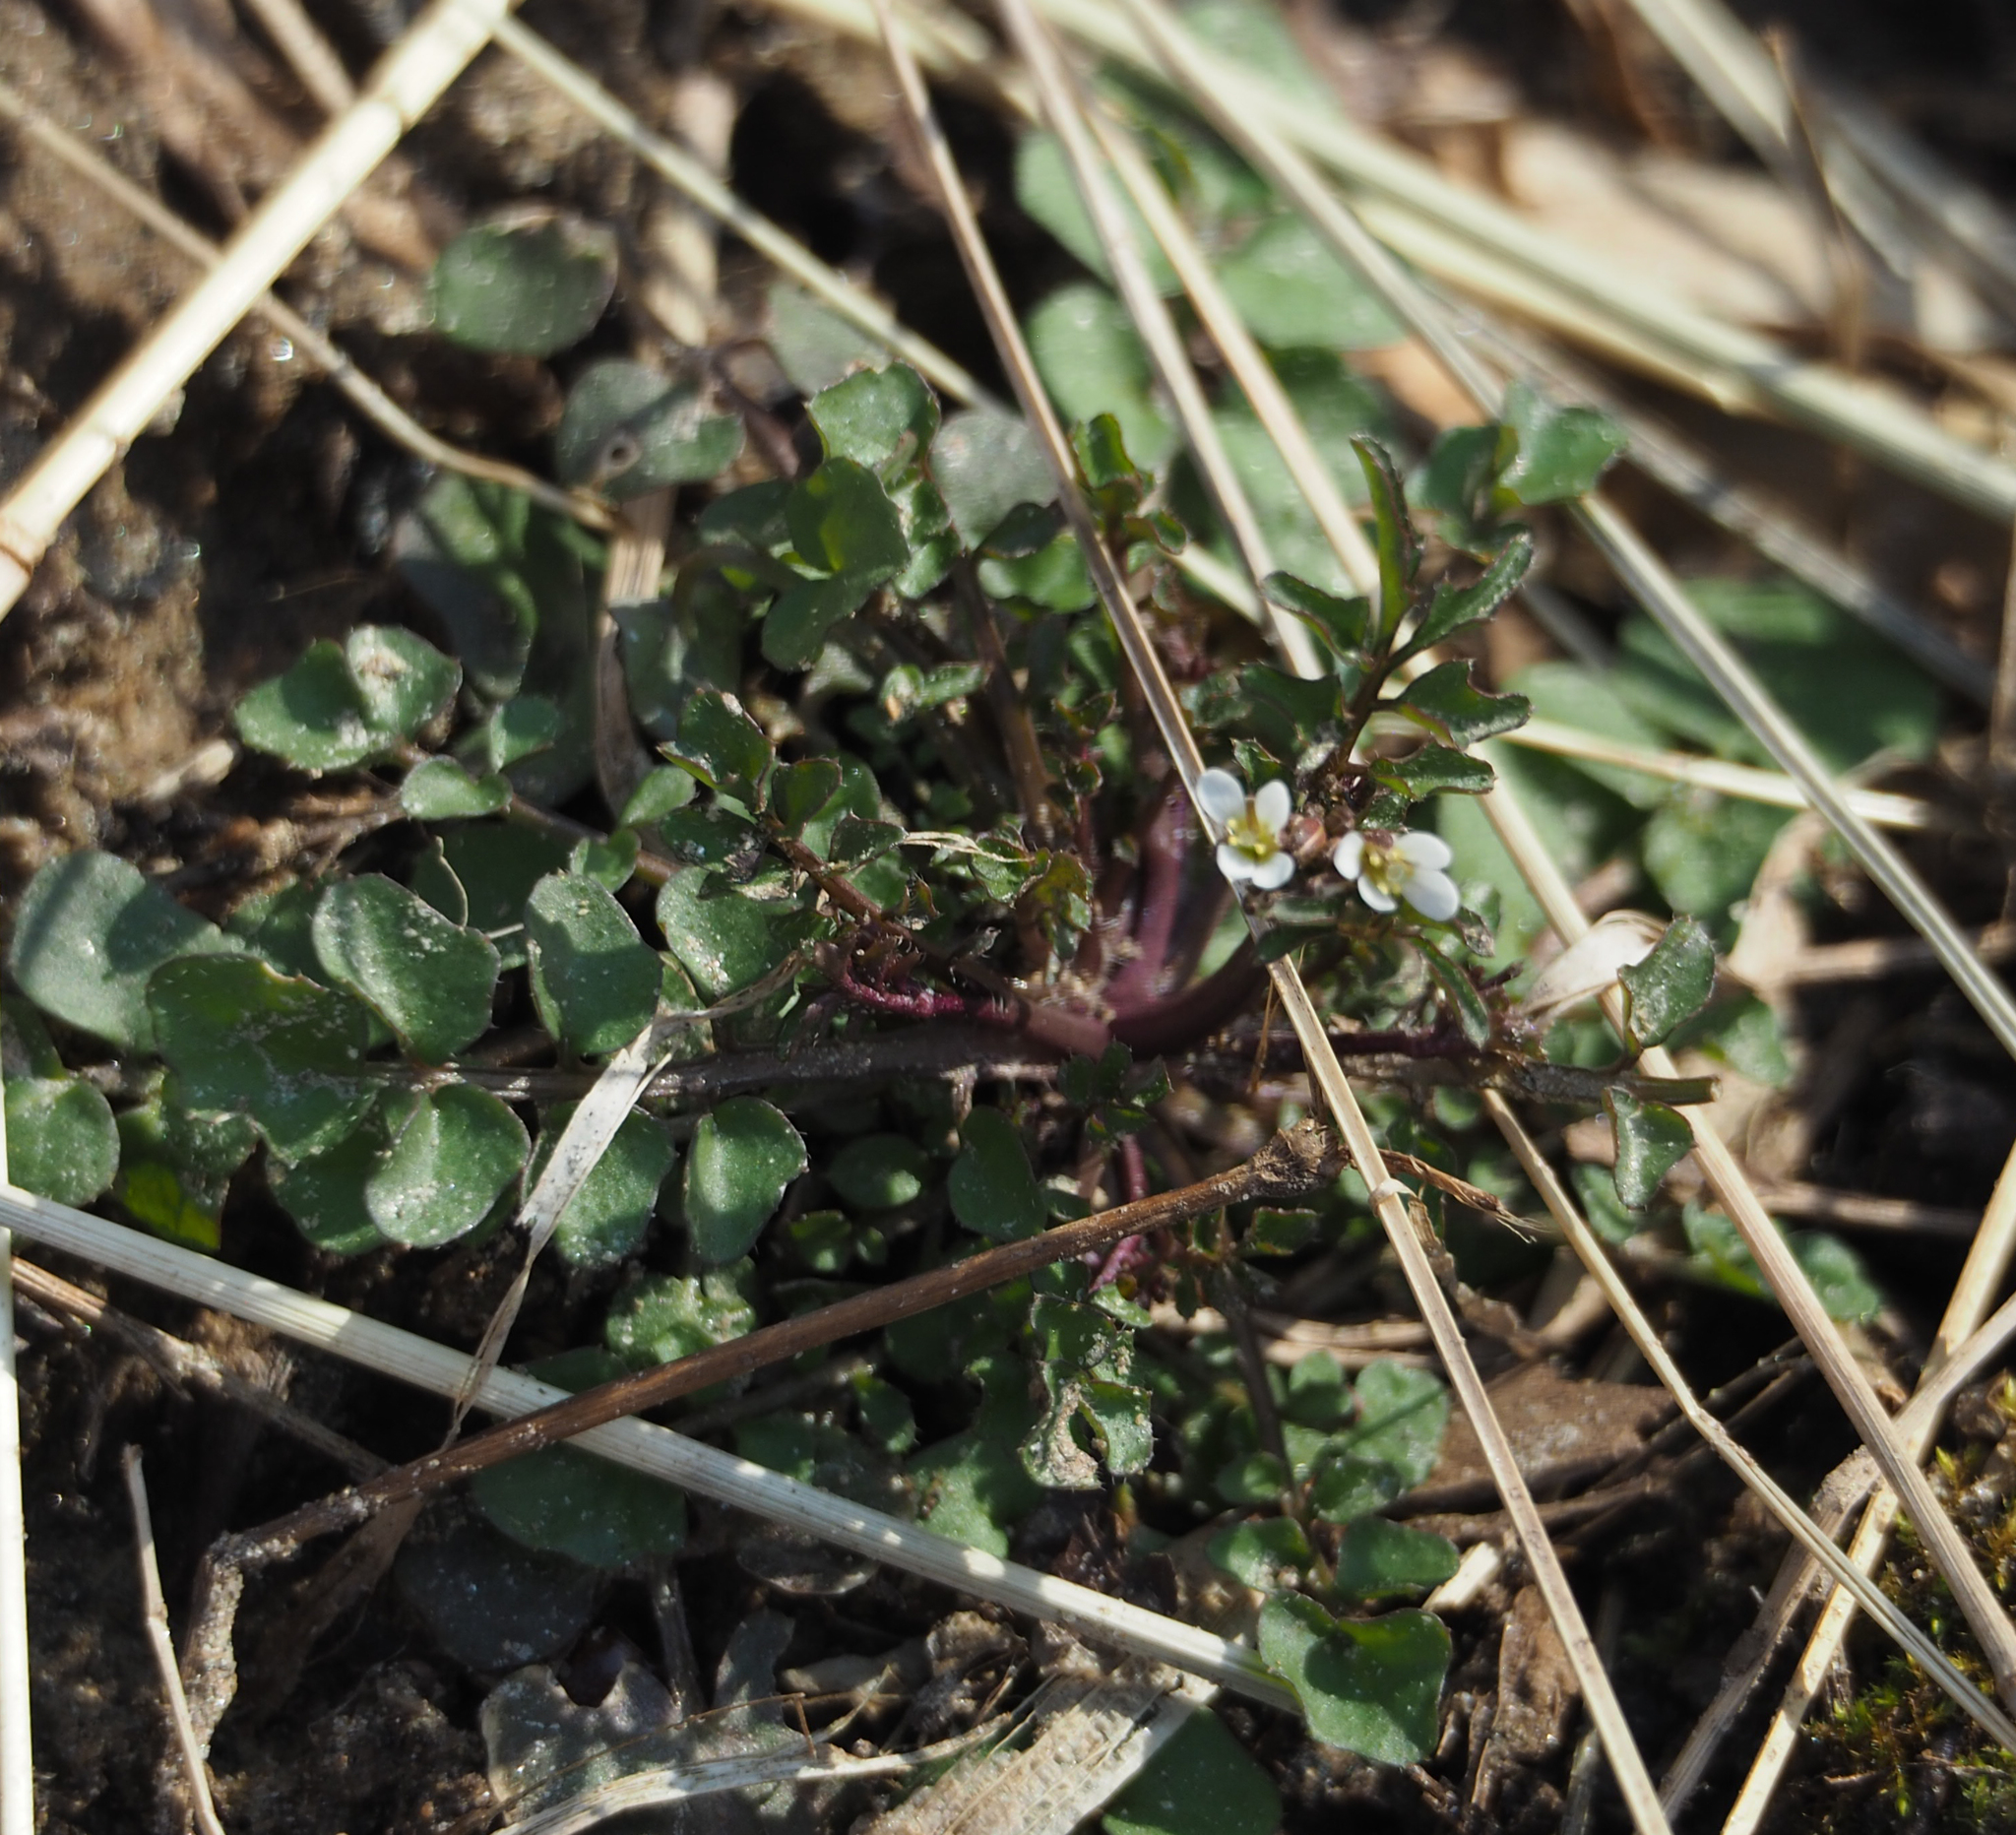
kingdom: Plantae
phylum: Tracheophyta
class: Magnoliopsida
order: Brassicales
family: Brassicaceae
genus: Cardamine
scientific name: Cardamine hirsuta
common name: Hairy bittercress
